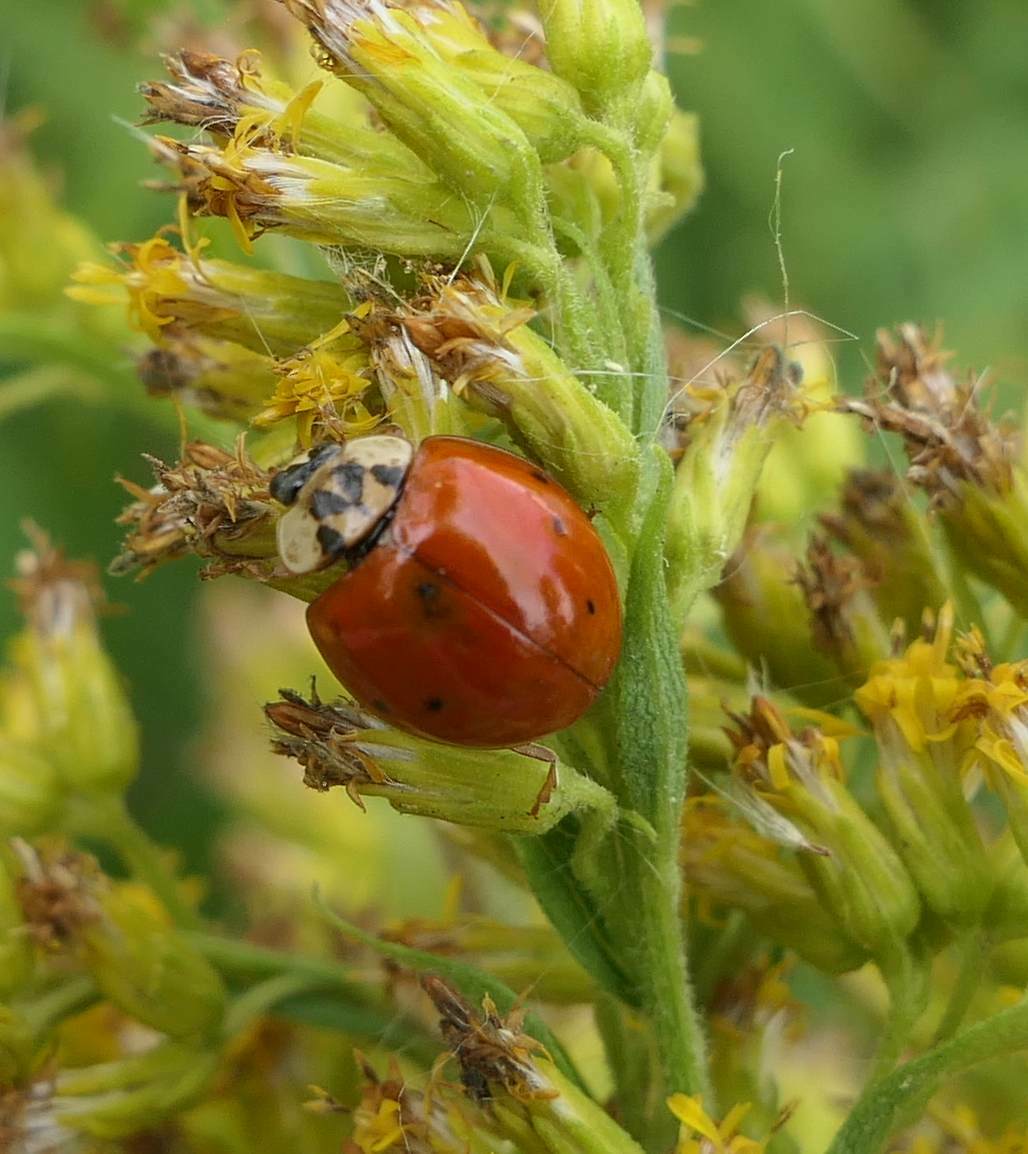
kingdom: Animalia
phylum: Arthropoda
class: Insecta
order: Coleoptera
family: Coccinellidae
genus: Harmonia
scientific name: Harmonia axyridis
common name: Harlequin ladybird
